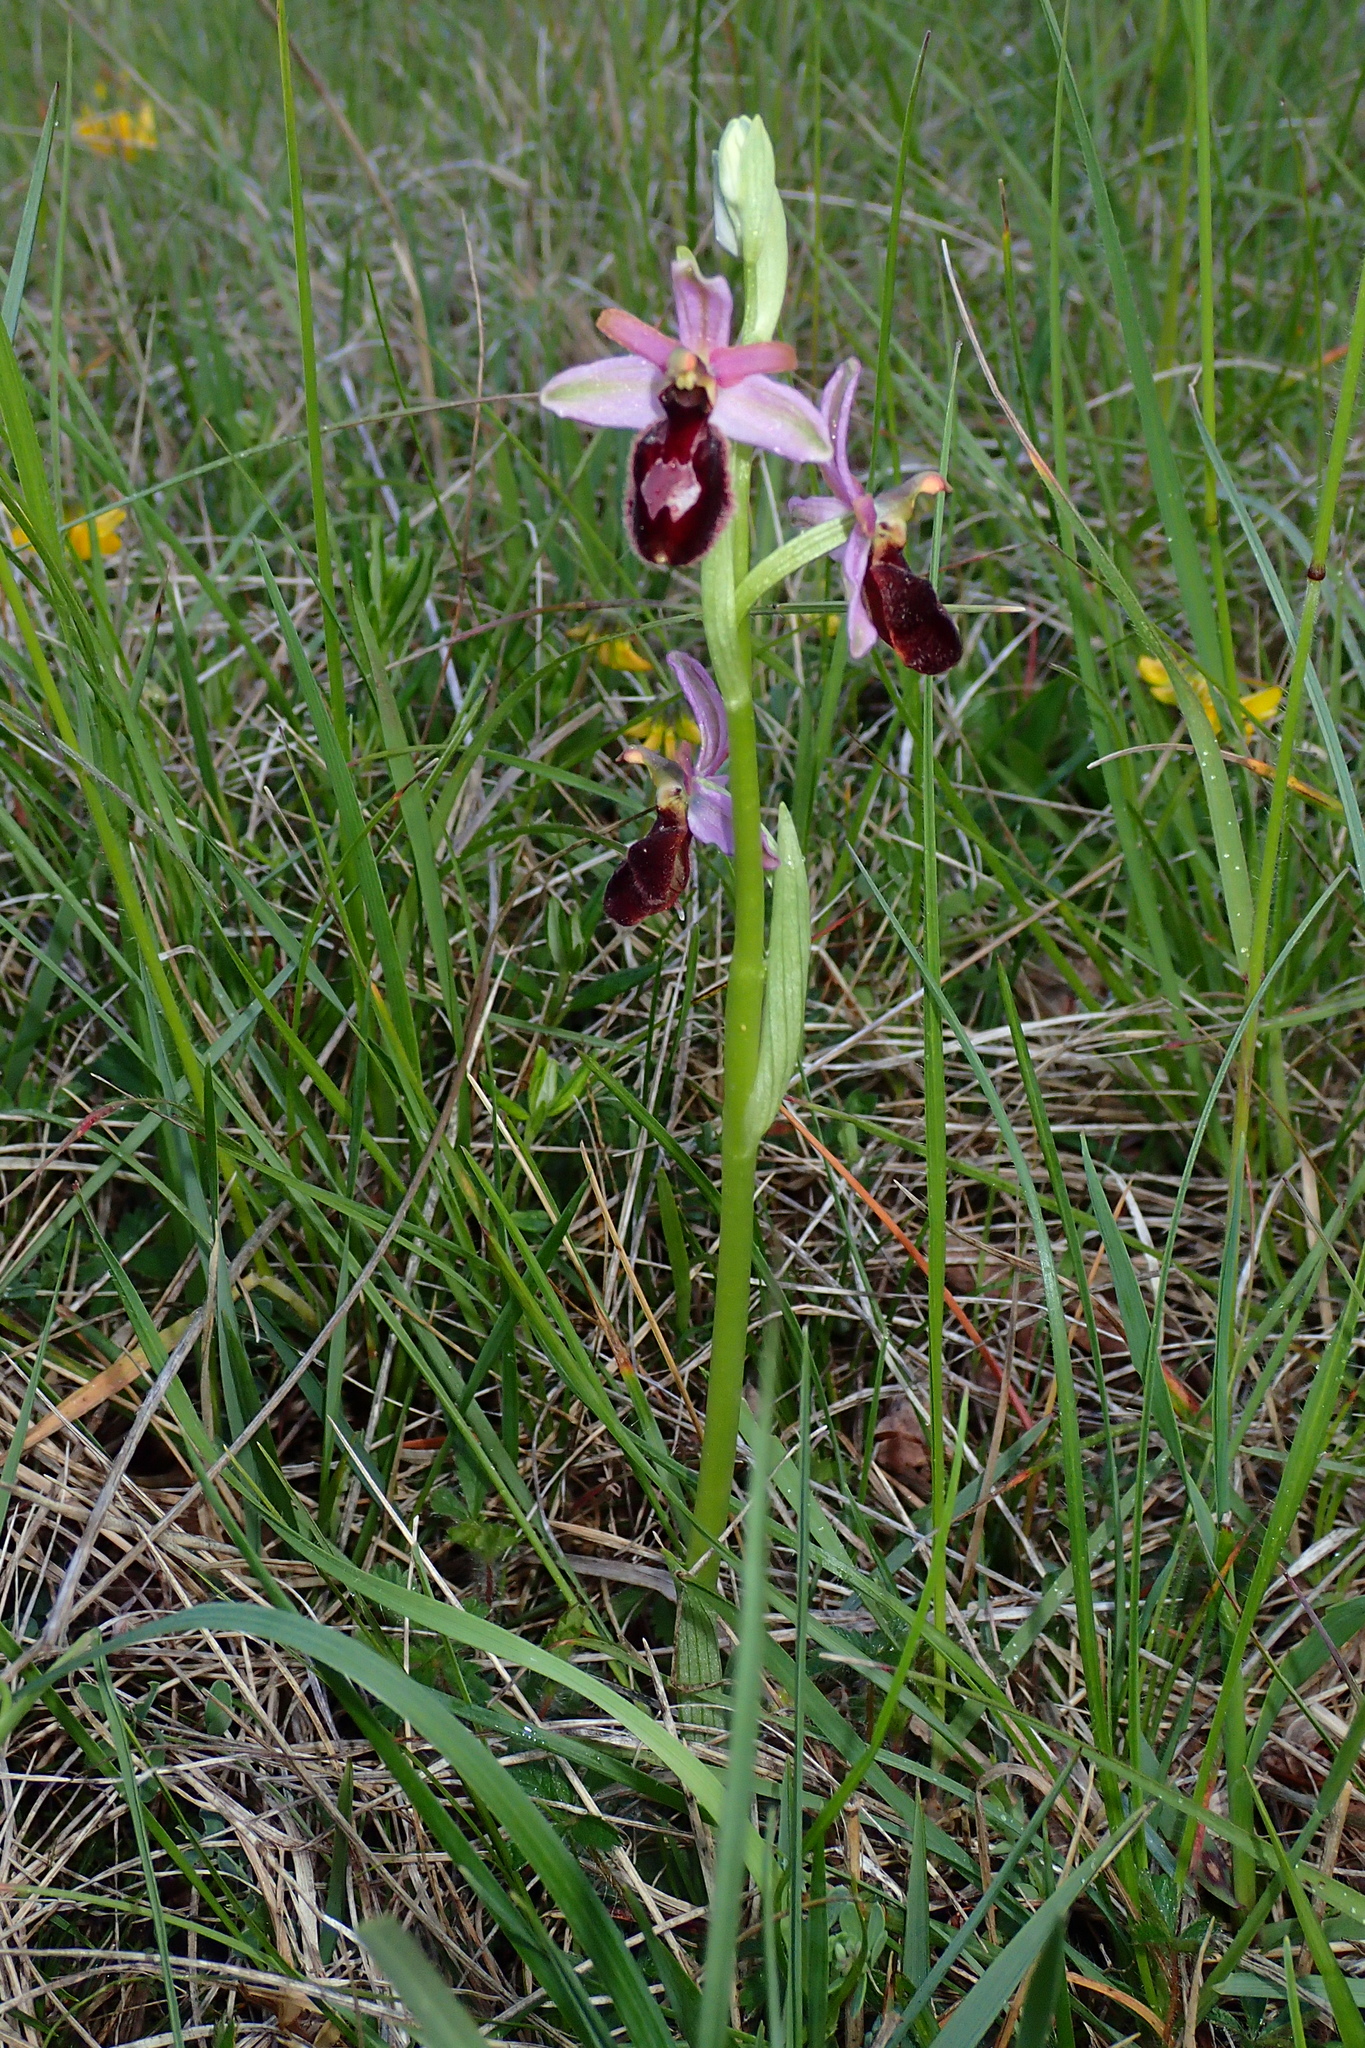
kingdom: Plantae
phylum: Tracheophyta
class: Liliopsida
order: Asparagales
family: Orchidaceae
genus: Ophrys
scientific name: Ophrys flavicans
